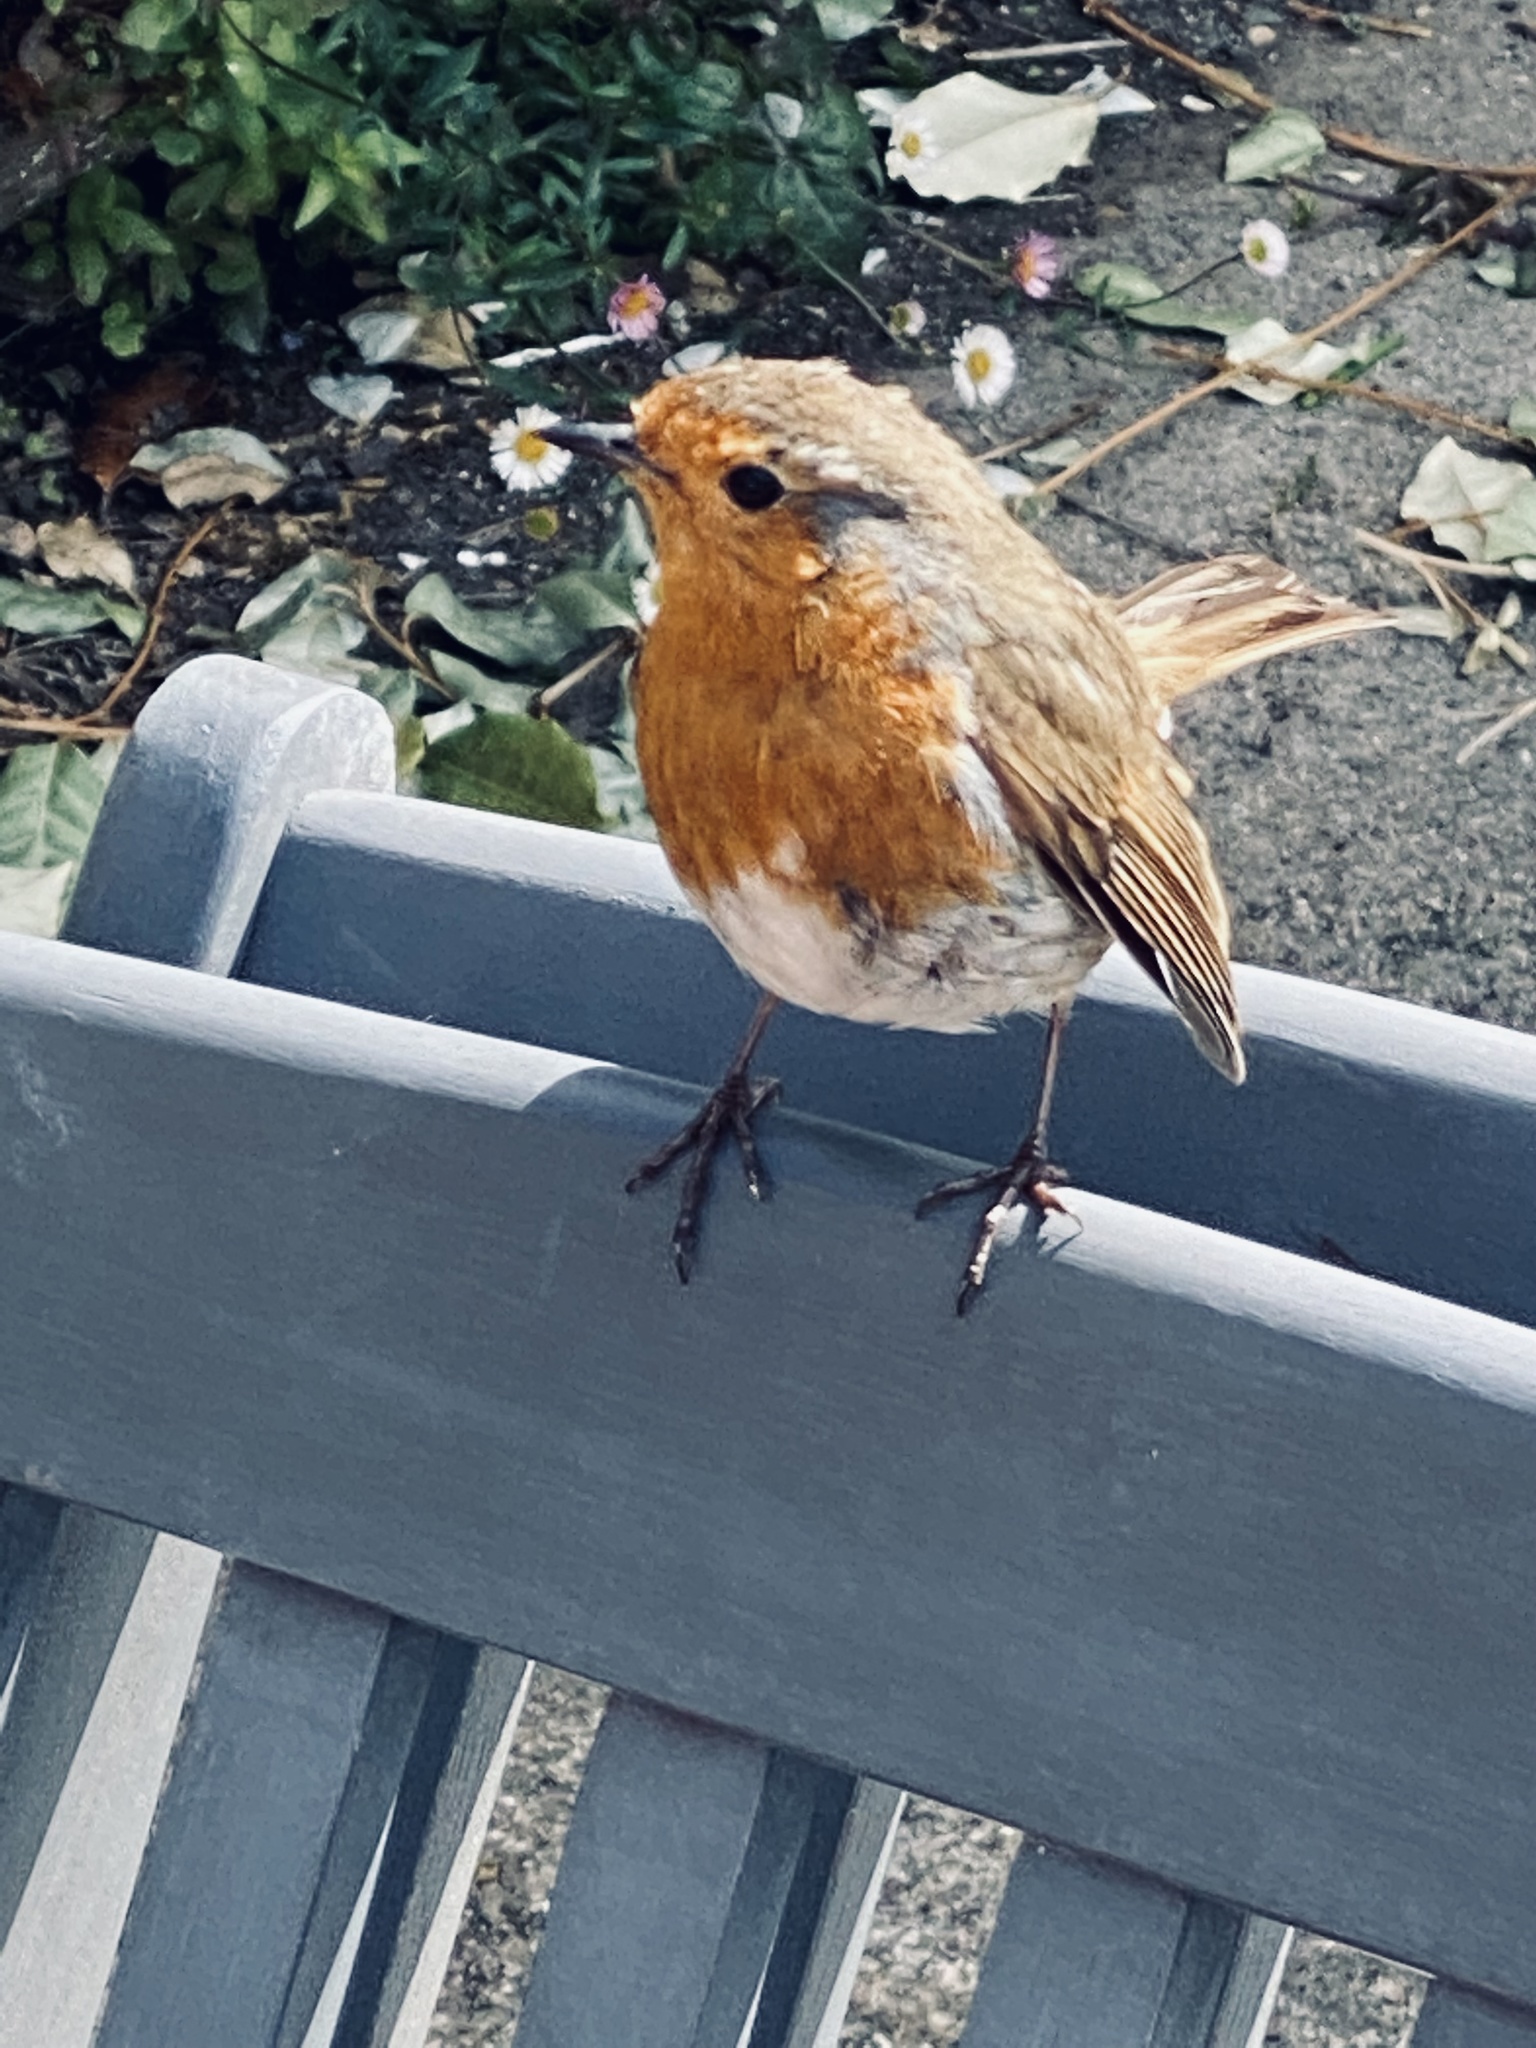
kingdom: Animalia
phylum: Chordata
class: Aves
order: Passeriformes
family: Muscicapidae
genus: Erithacus
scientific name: Erithacus rubecula
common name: European robin
